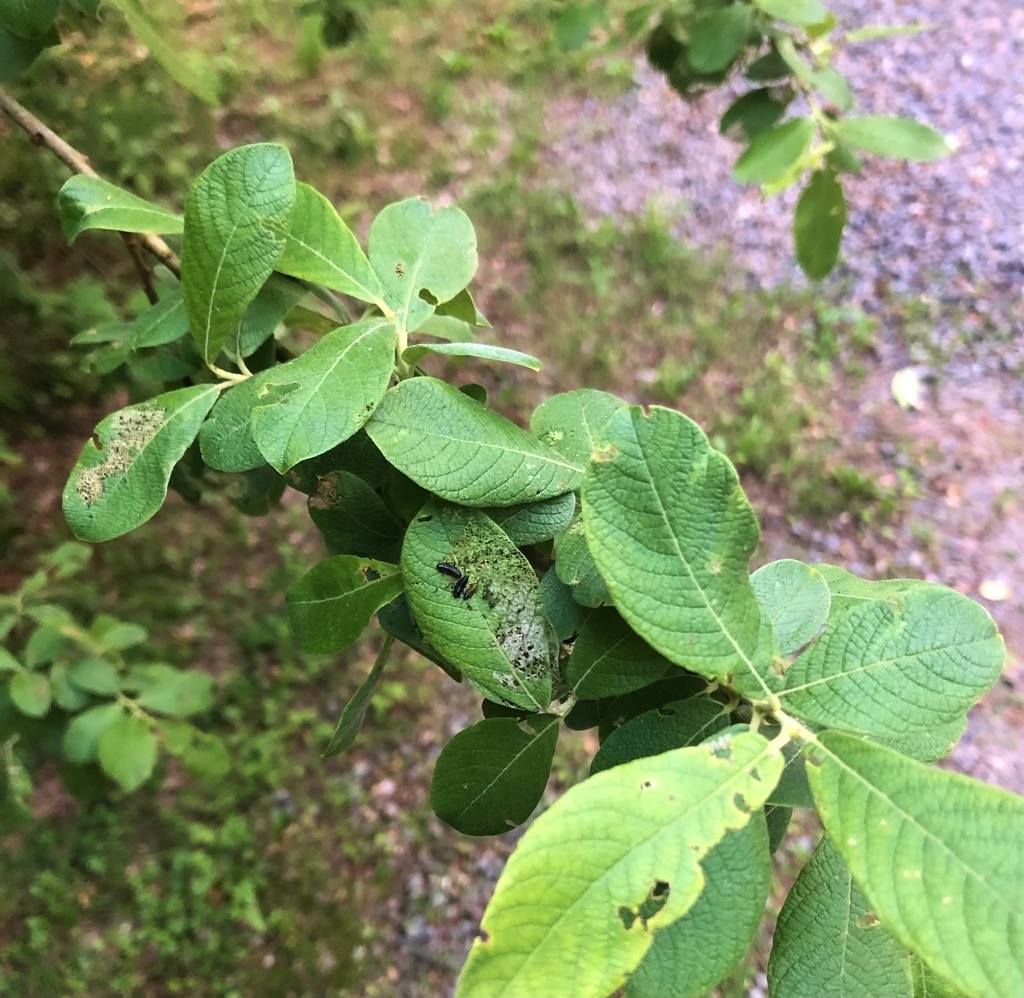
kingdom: Animalia
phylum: Arthropoda
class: Insecta
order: Coleoptera
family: Chrysomelidae
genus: Plagiodera
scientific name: Plagiodera versicolora
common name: Imported willow leaf beetle
